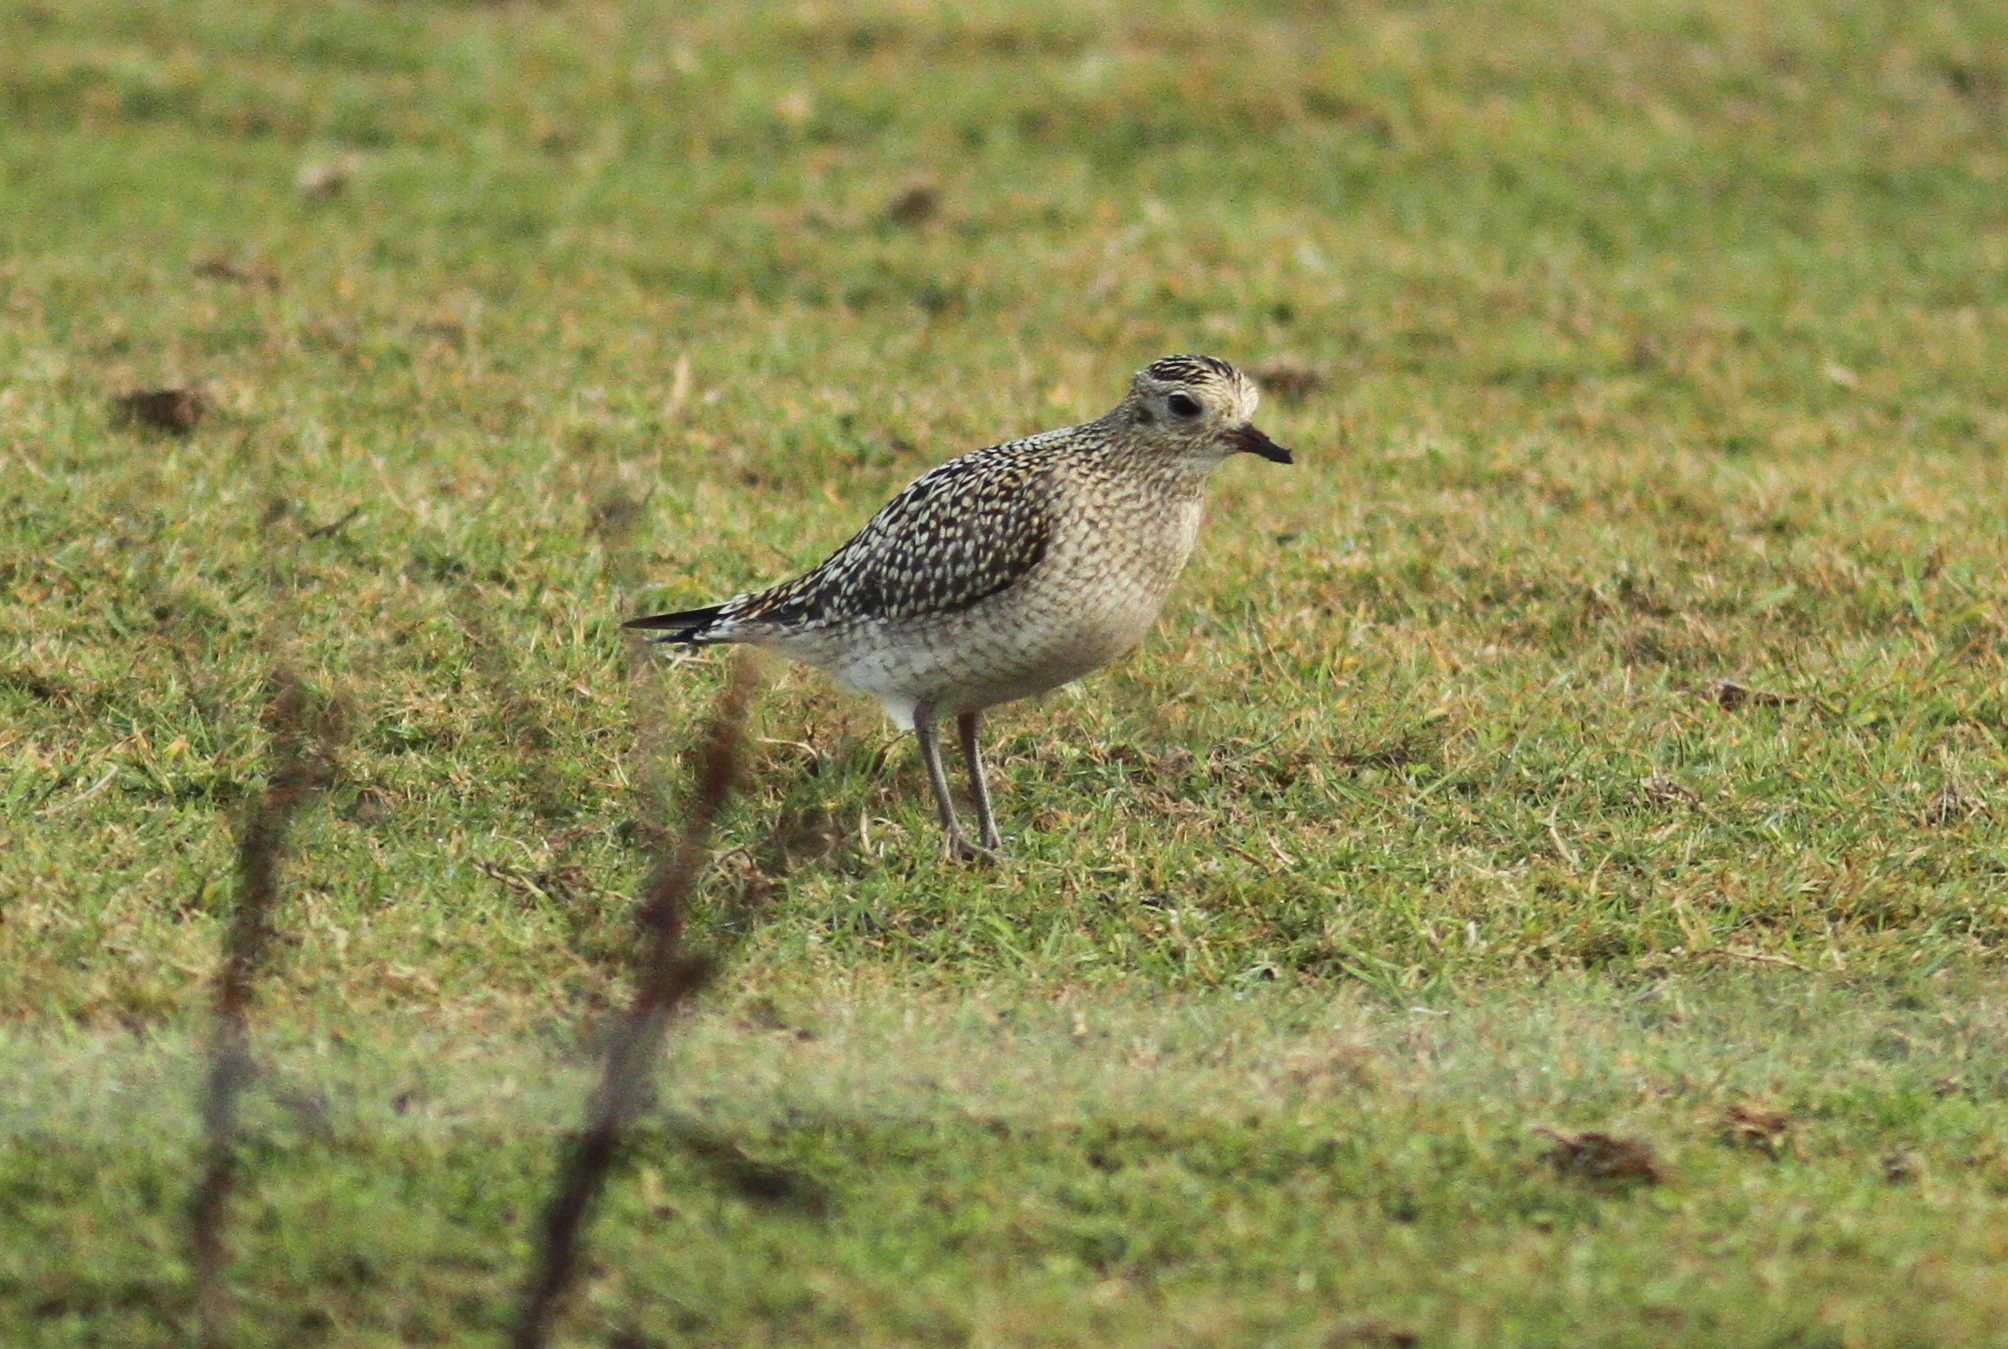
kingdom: Animalia
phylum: Chordata
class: Aves
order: Charadriiformes
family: Charadriidae
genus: Pluvialis
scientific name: Pluvialis apricaria
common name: European golden plover
